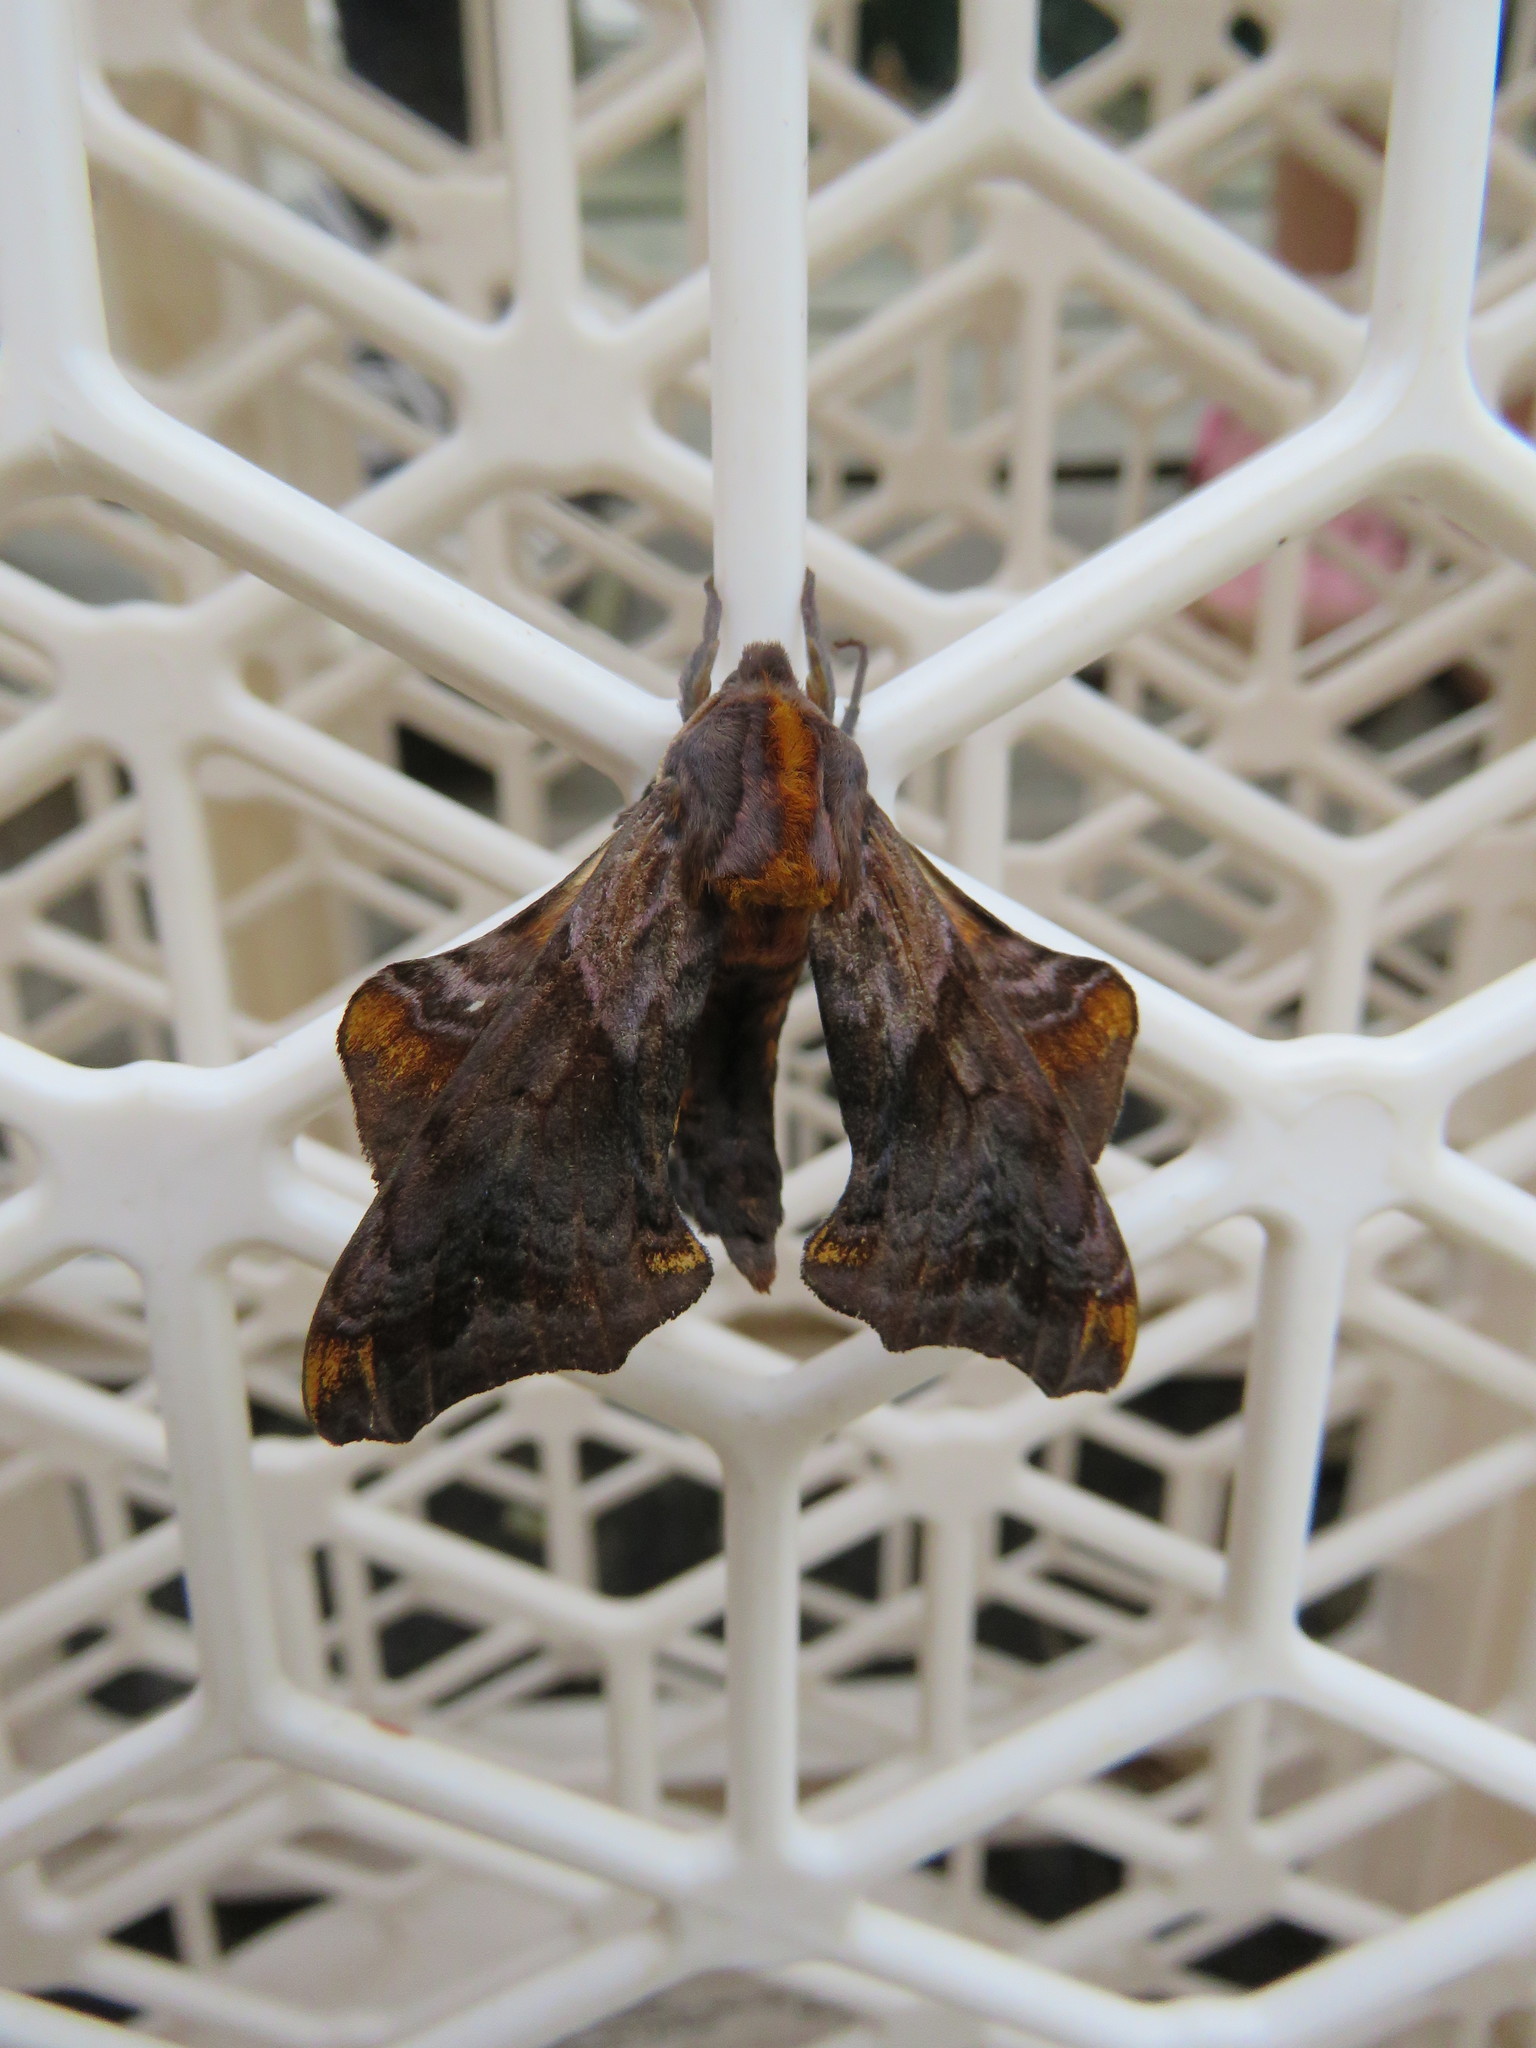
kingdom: Animalia
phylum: Arthropoda
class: Insecta
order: Lepidoptera
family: Sphingidae
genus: Paonias
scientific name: Paonias myops
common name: Small-eyed sphinx
